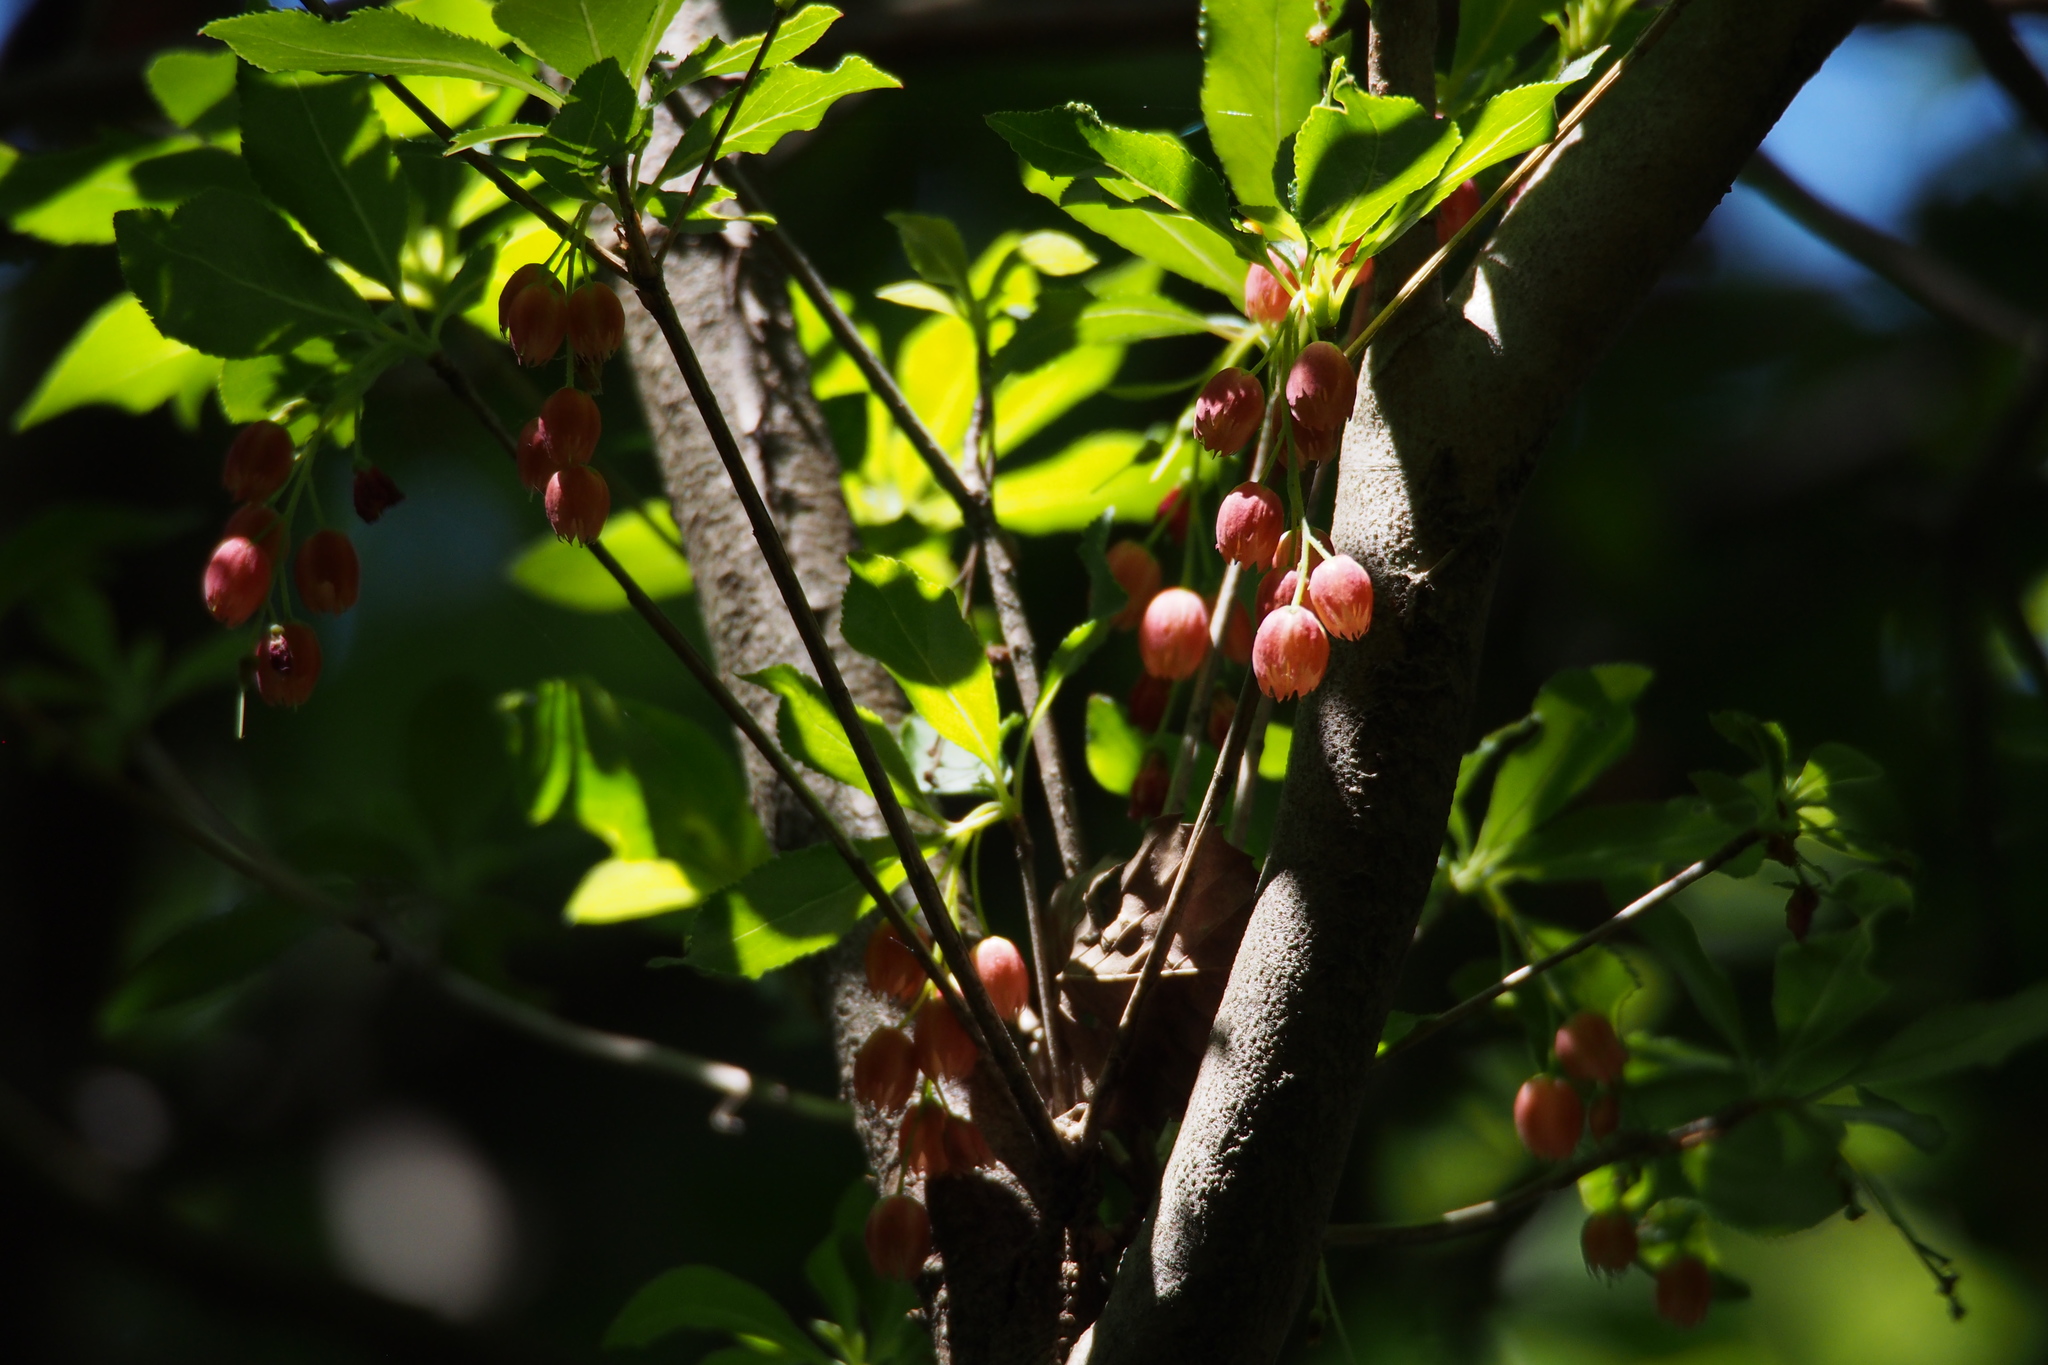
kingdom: Plantae
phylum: Tracheophyta
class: Magnoliopsida
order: Ericales
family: Ericaceae
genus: Enkianthus
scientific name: Enkianthus cernuus
